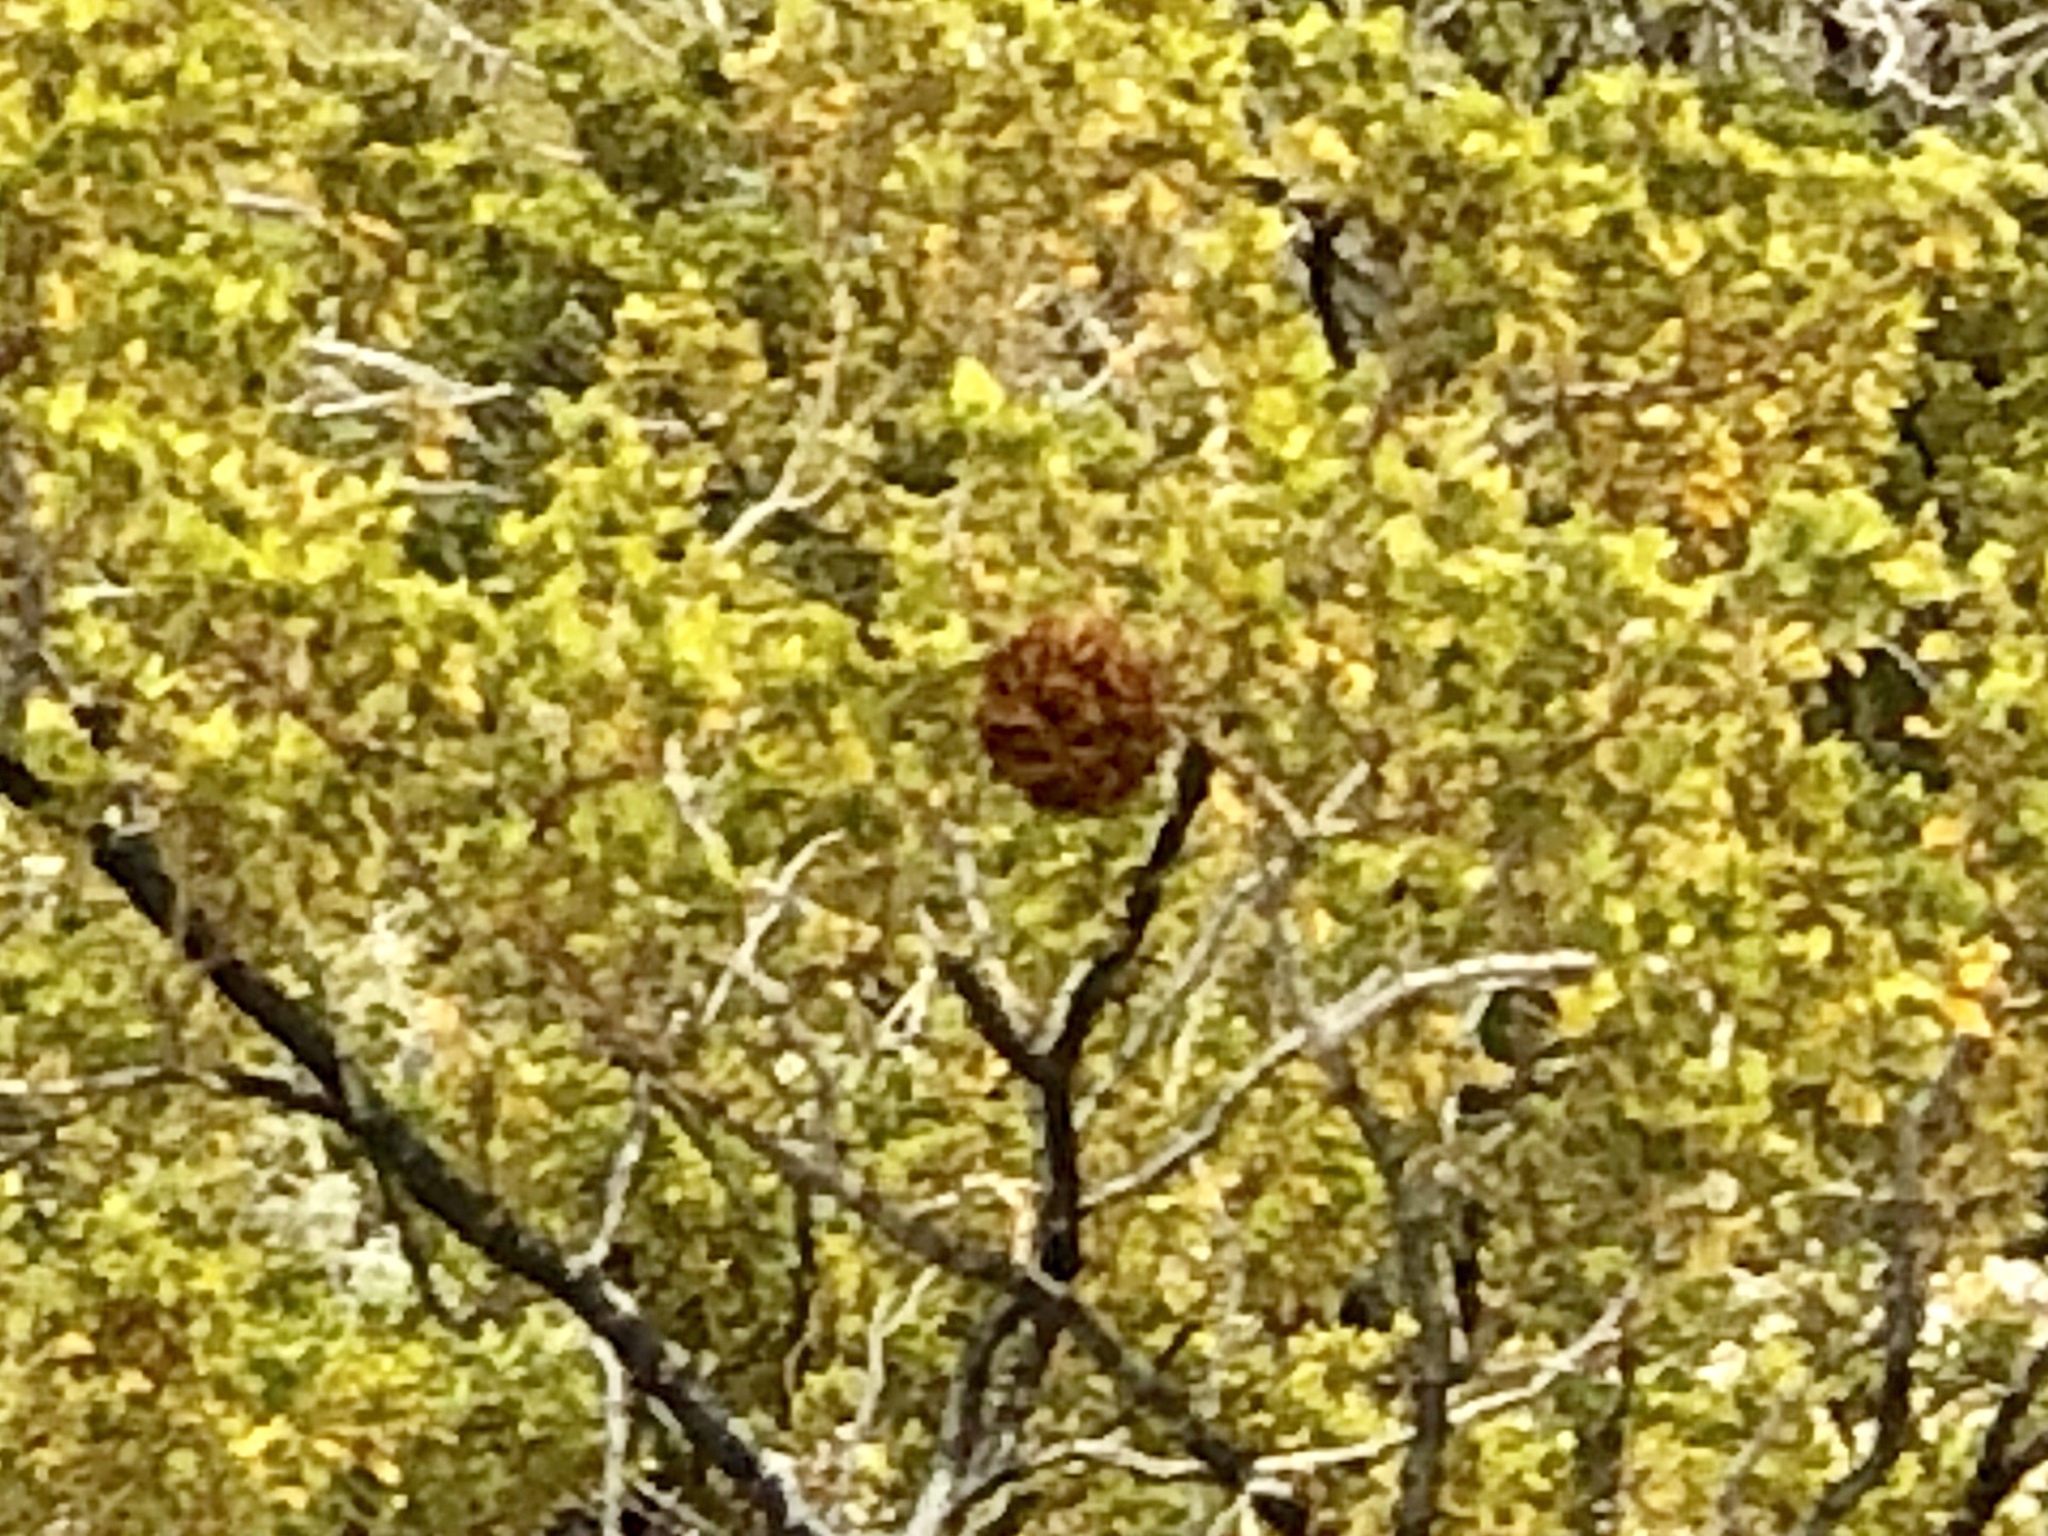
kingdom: Animalia
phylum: Arthropoda
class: Insecta
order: Diptera
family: Cecidomyiidae
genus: Asphondylia
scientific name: Asphondylia auripila
